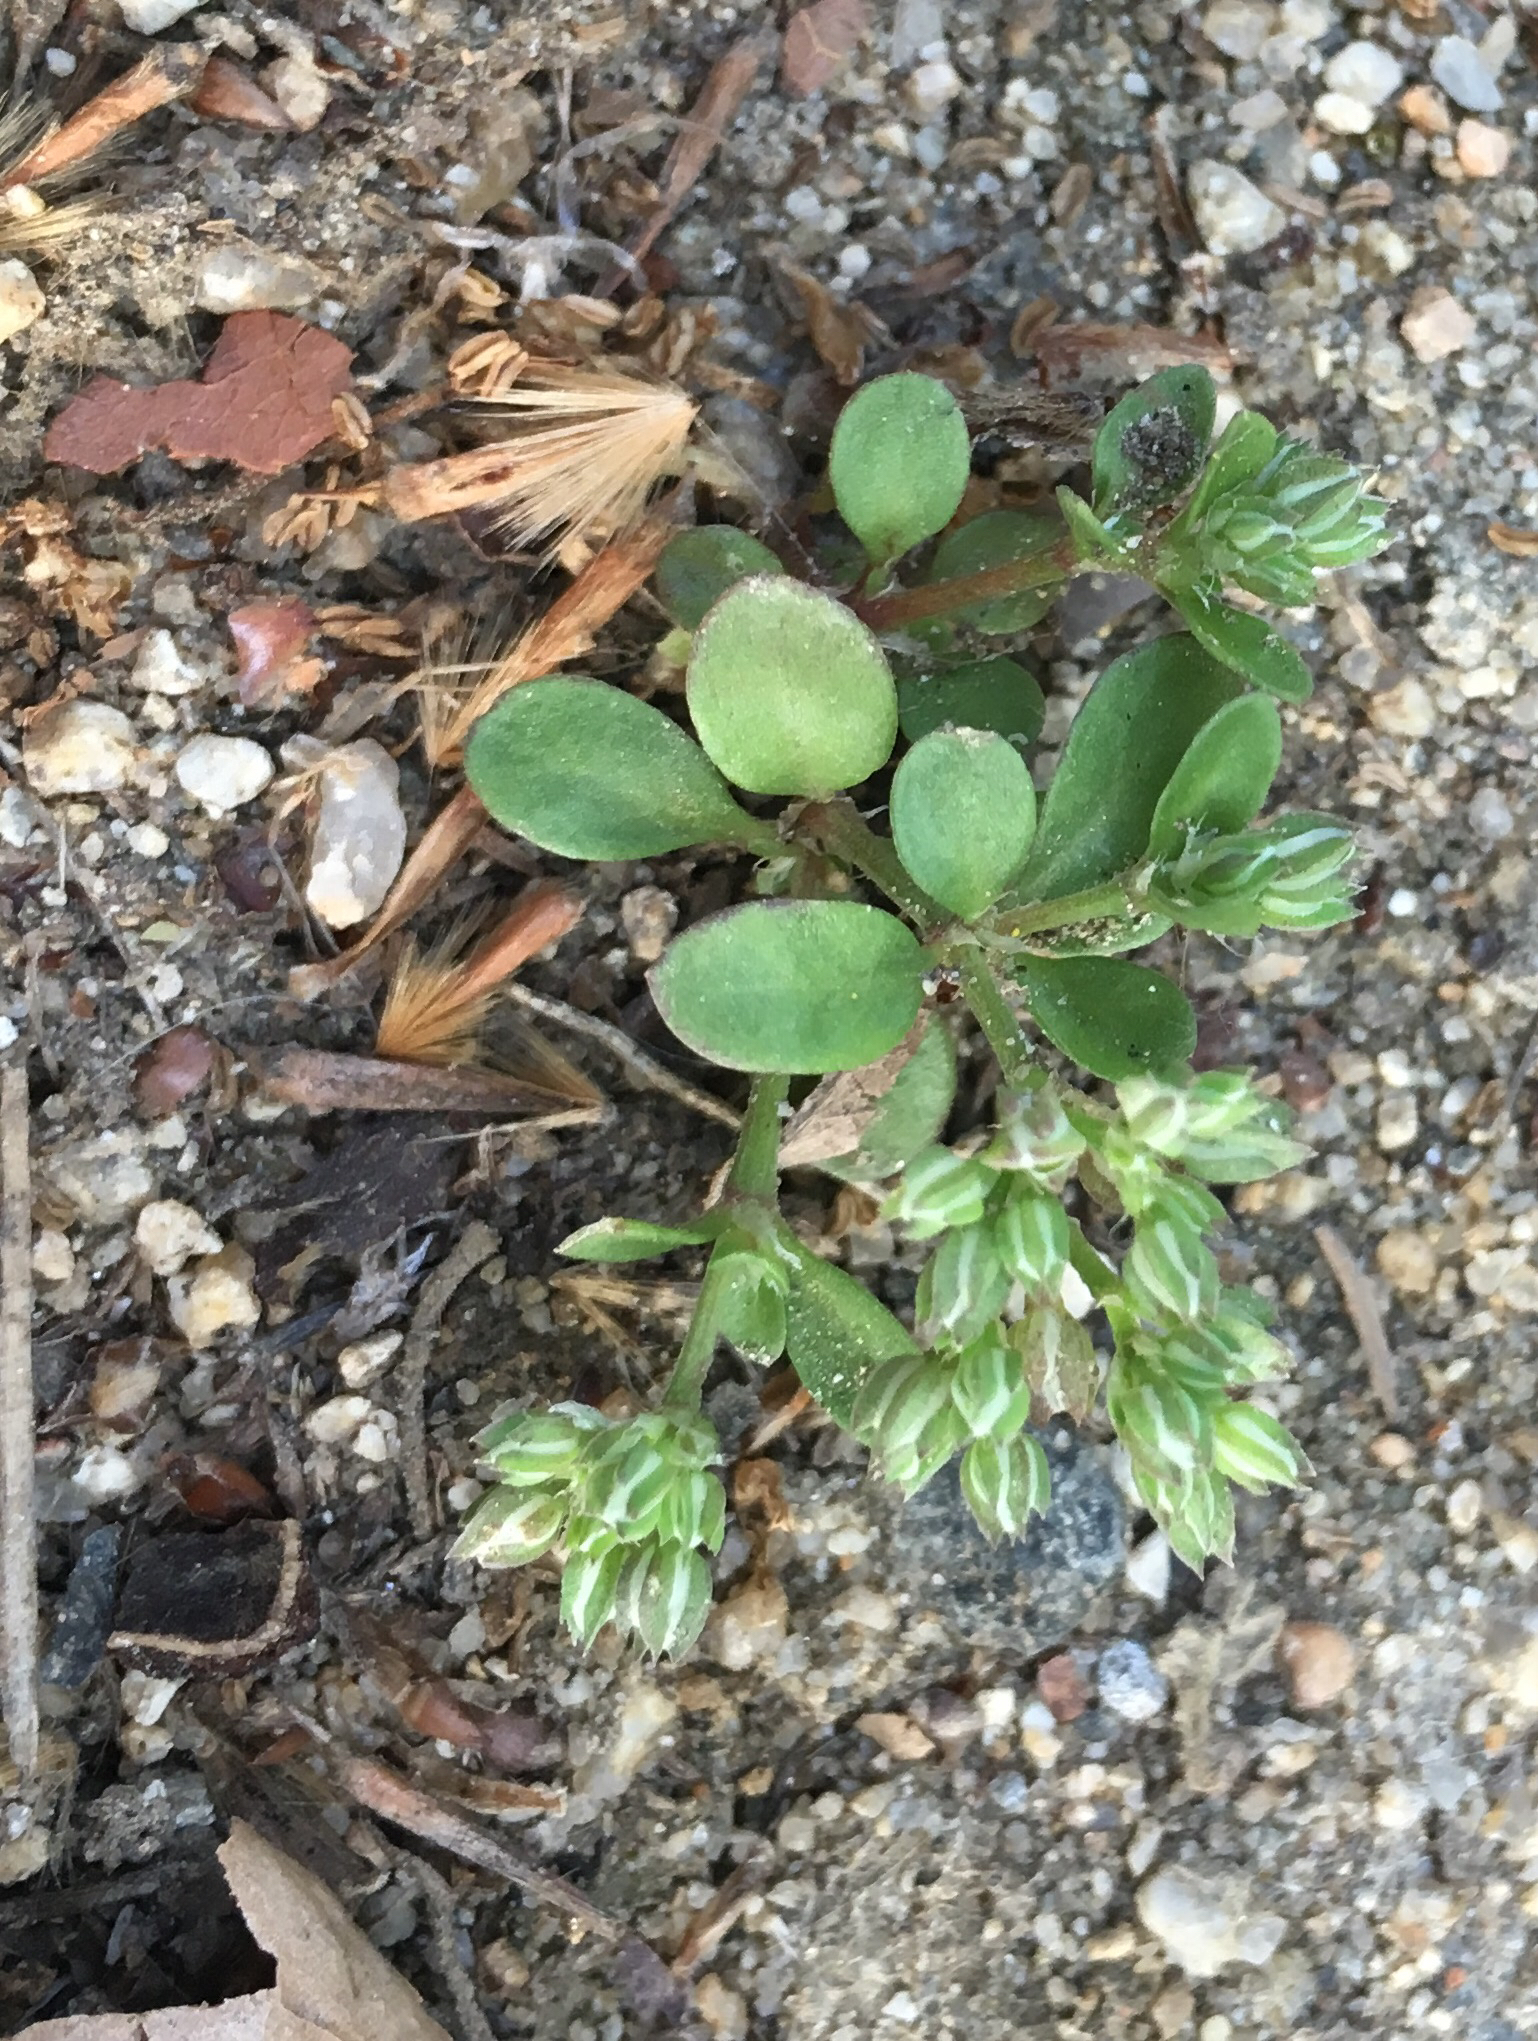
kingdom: Plantae
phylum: Tracheophyta
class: Magnoliopsida
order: Caryophyllales
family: Caryophyllaceae
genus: Polycarpon
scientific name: Polycarpon tetraphyllum
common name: Four-leaved all-seed
